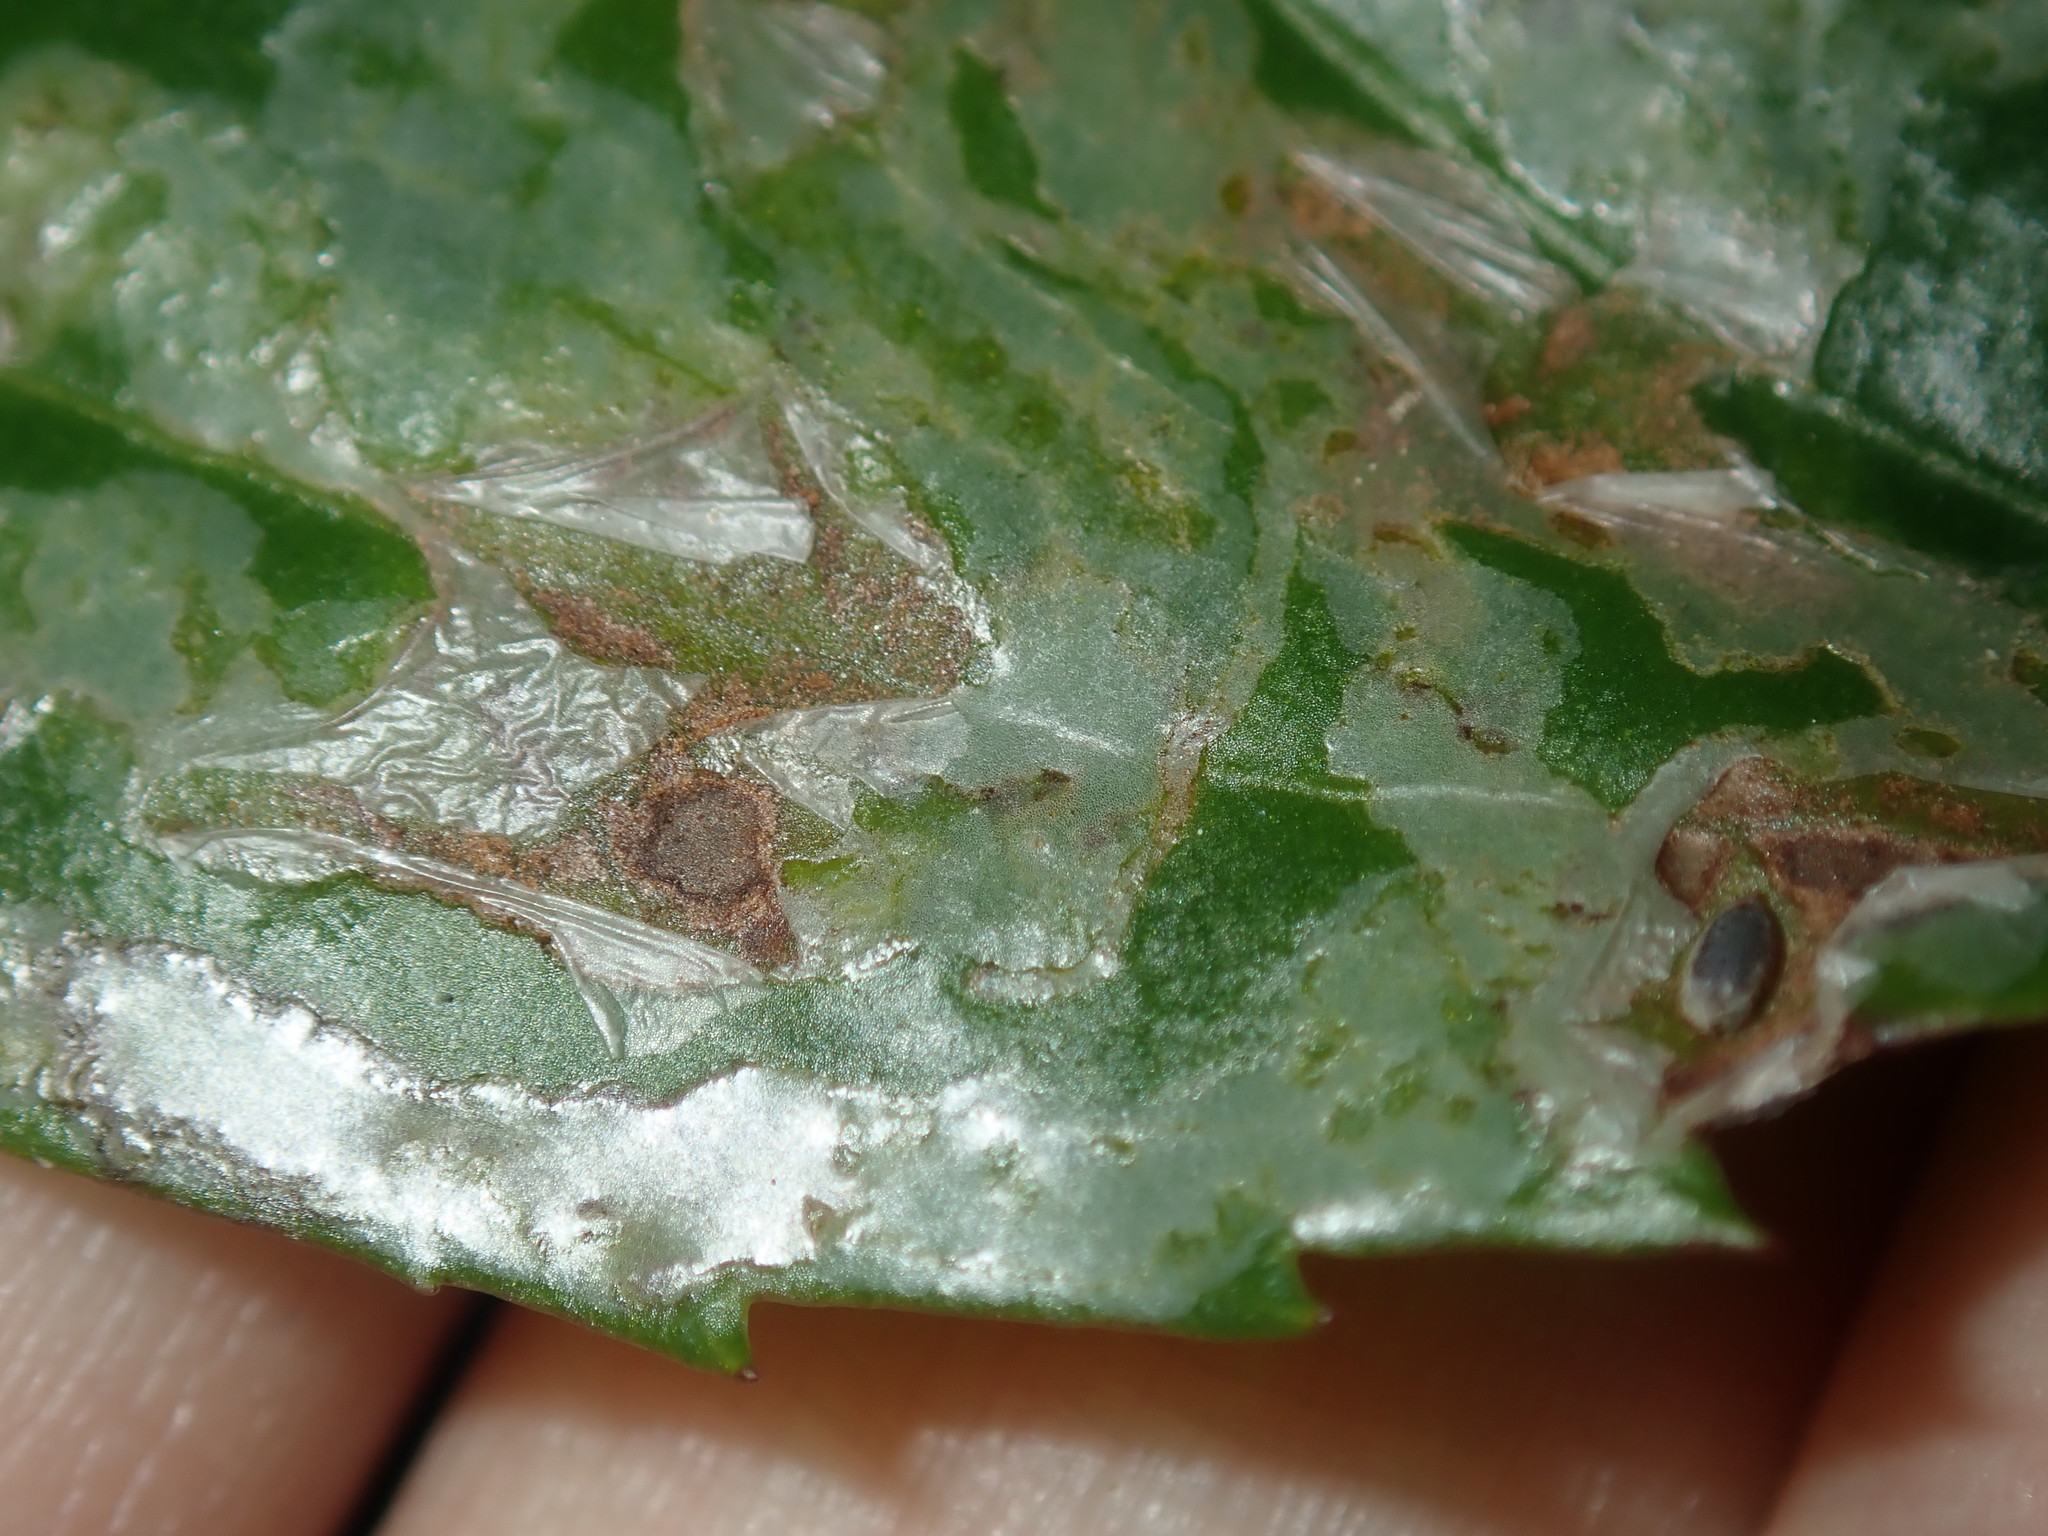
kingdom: Animalia
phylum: Arthropoda
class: Insecta
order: Diptera
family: Agromyzidae
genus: Tropicomyia
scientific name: Tropicomyia polyphyta
